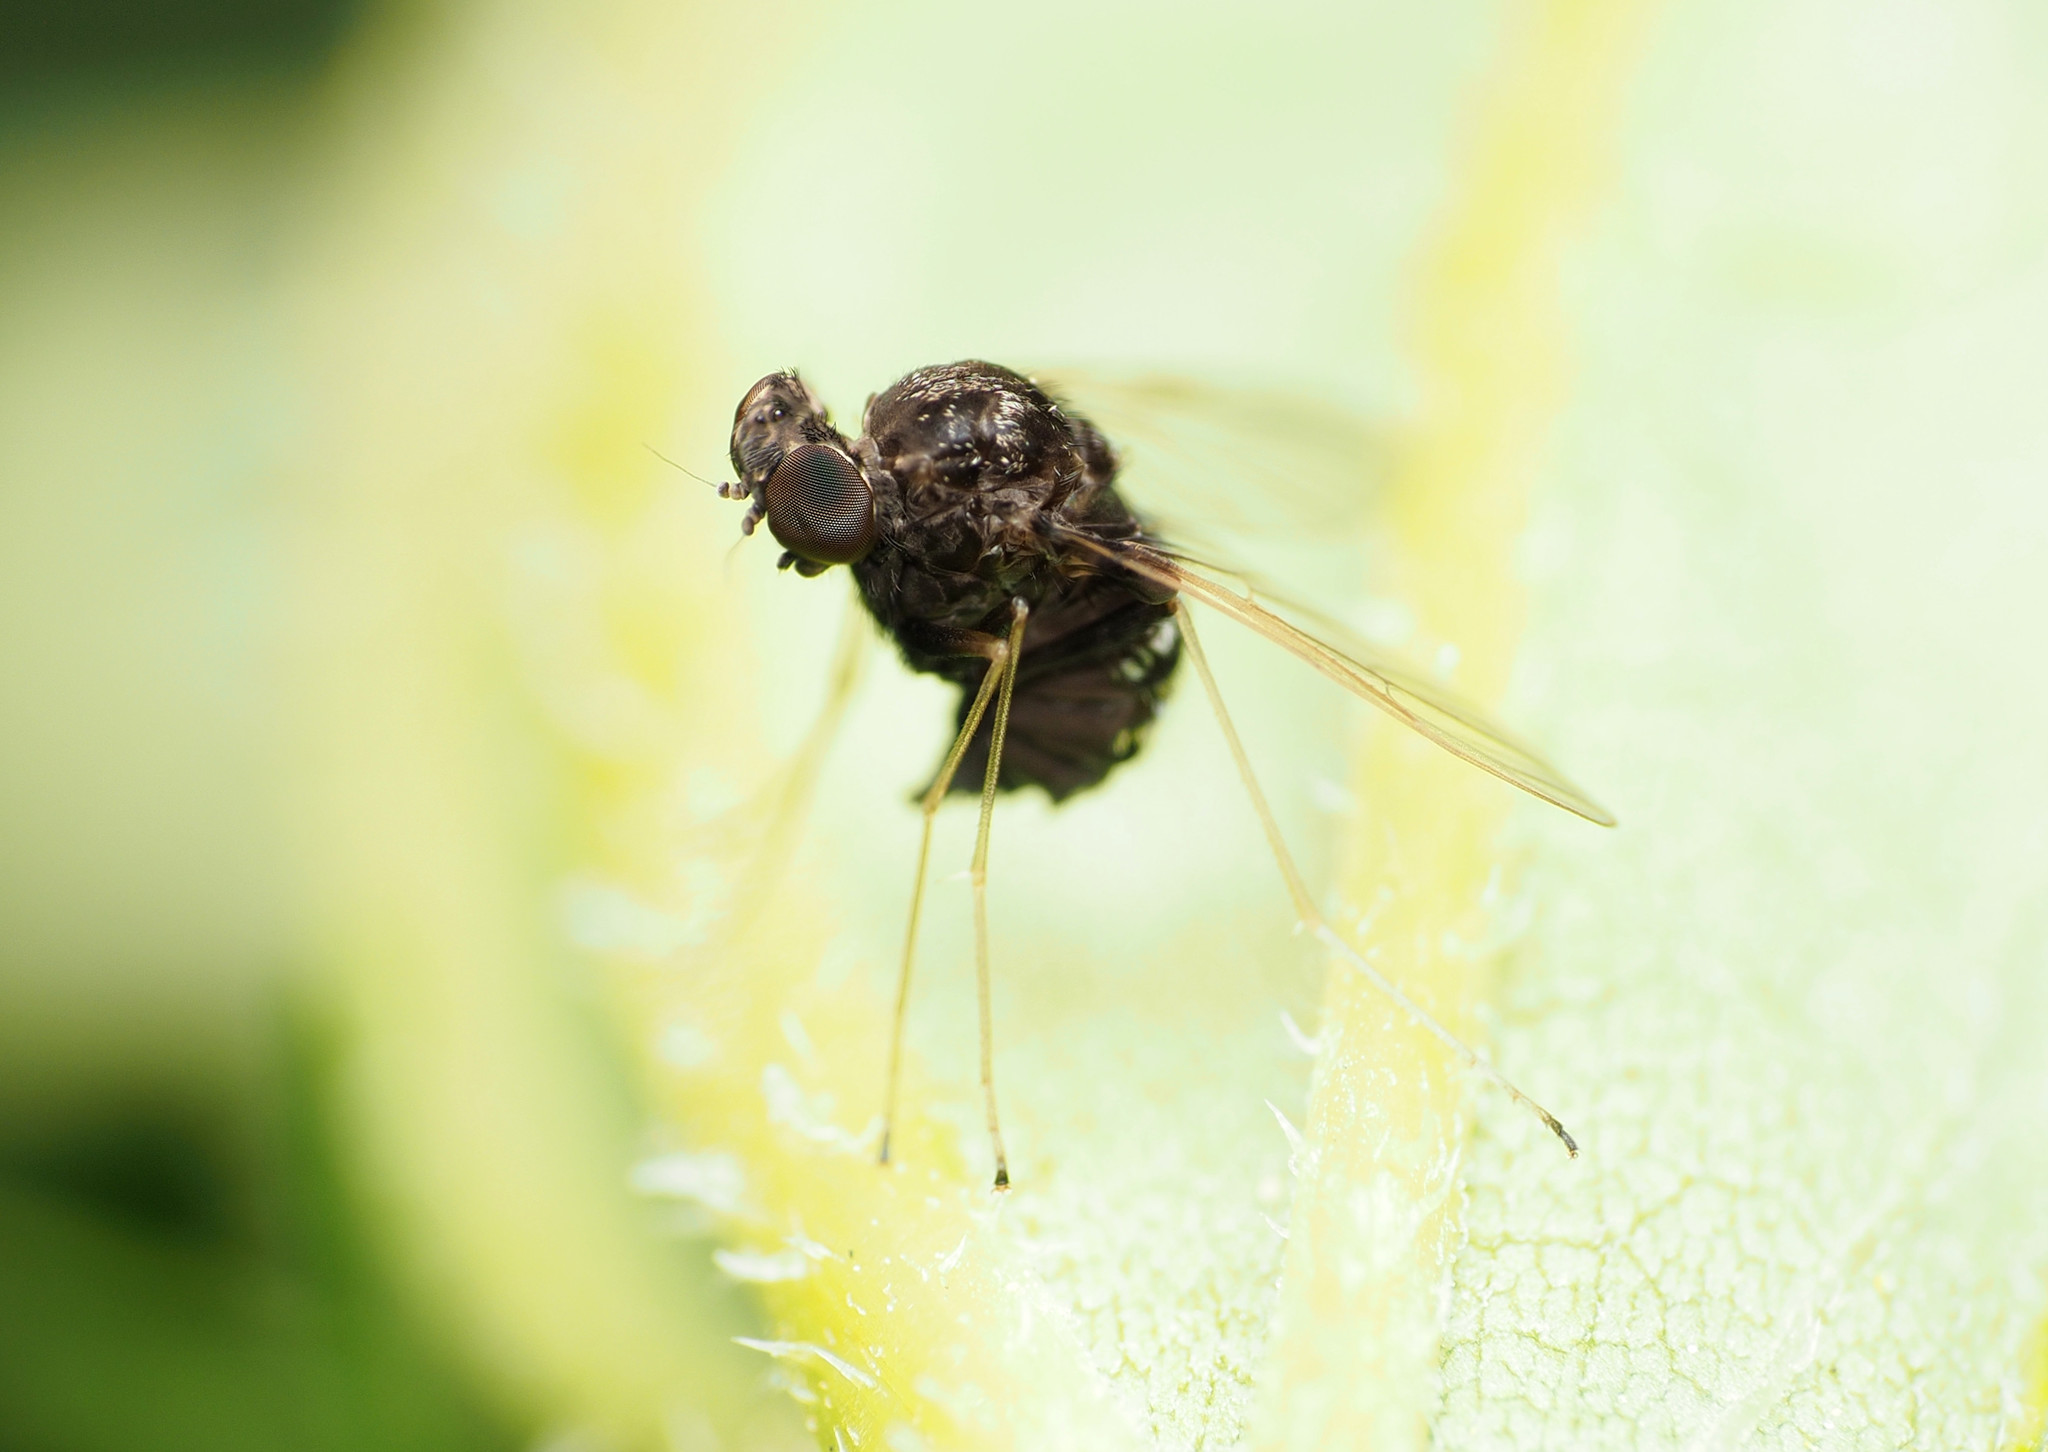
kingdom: Animalia
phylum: Arthropoda
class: Insecta
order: Diptera
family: Rhagionidae
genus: Chrysopilus
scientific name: Chrysopilus basilaris
